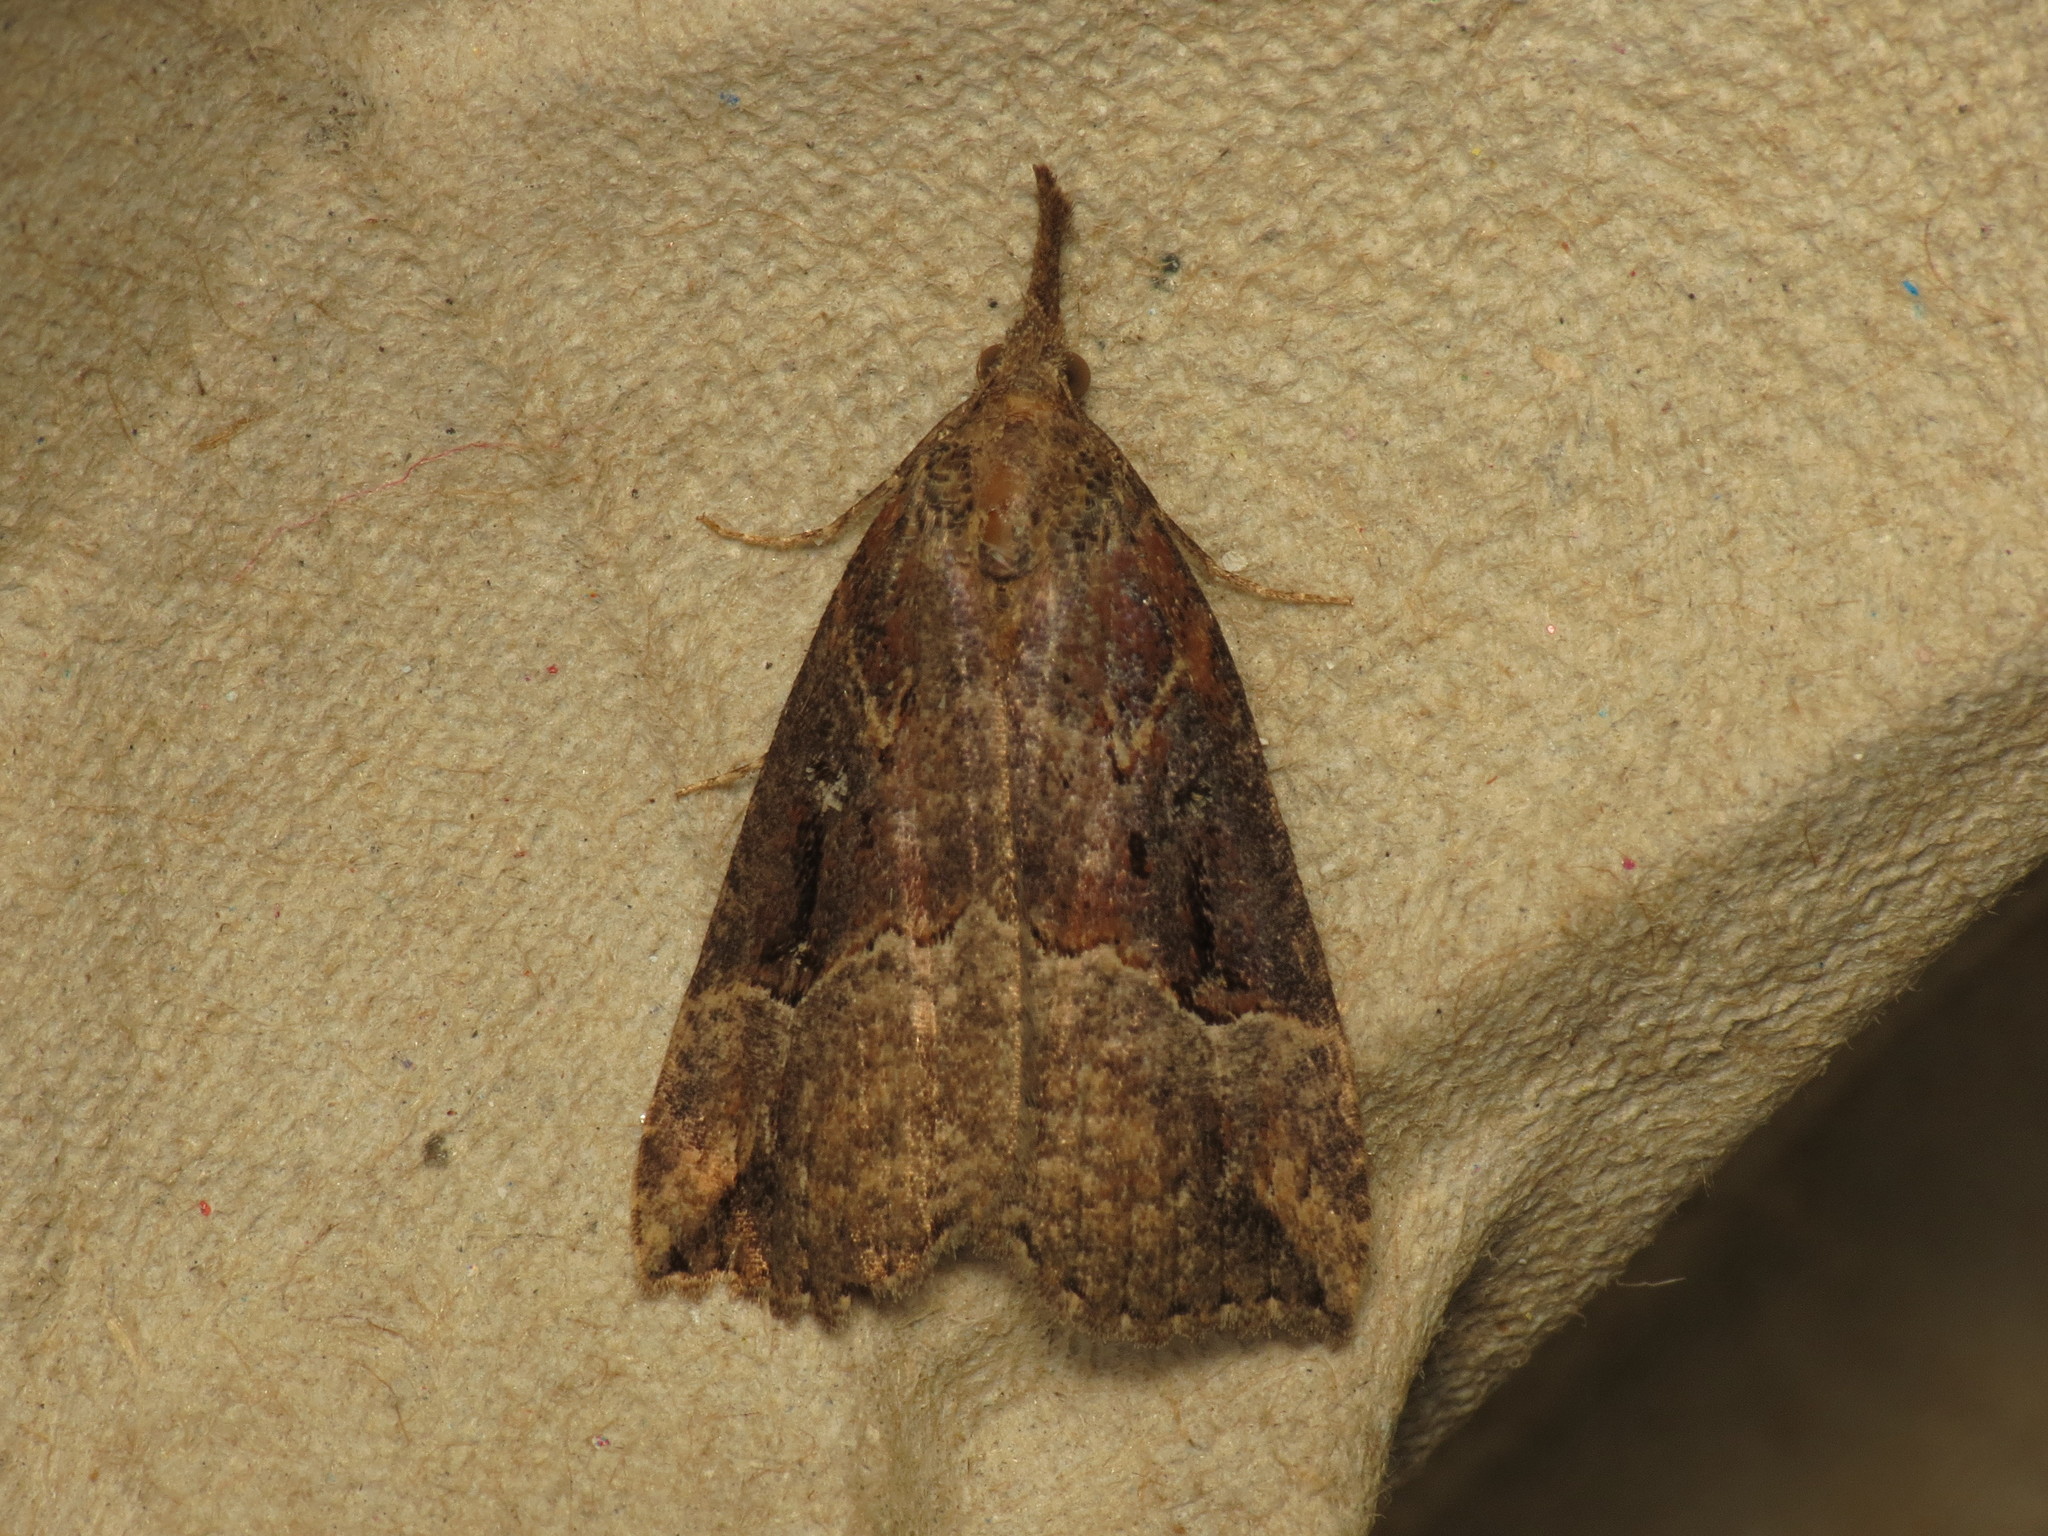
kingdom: Animalia
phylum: Arthropoda
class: Insecta
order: Lepidoptera
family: Erebidae
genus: Hypena
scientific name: Hypena rostralis
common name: Buttoned snout
